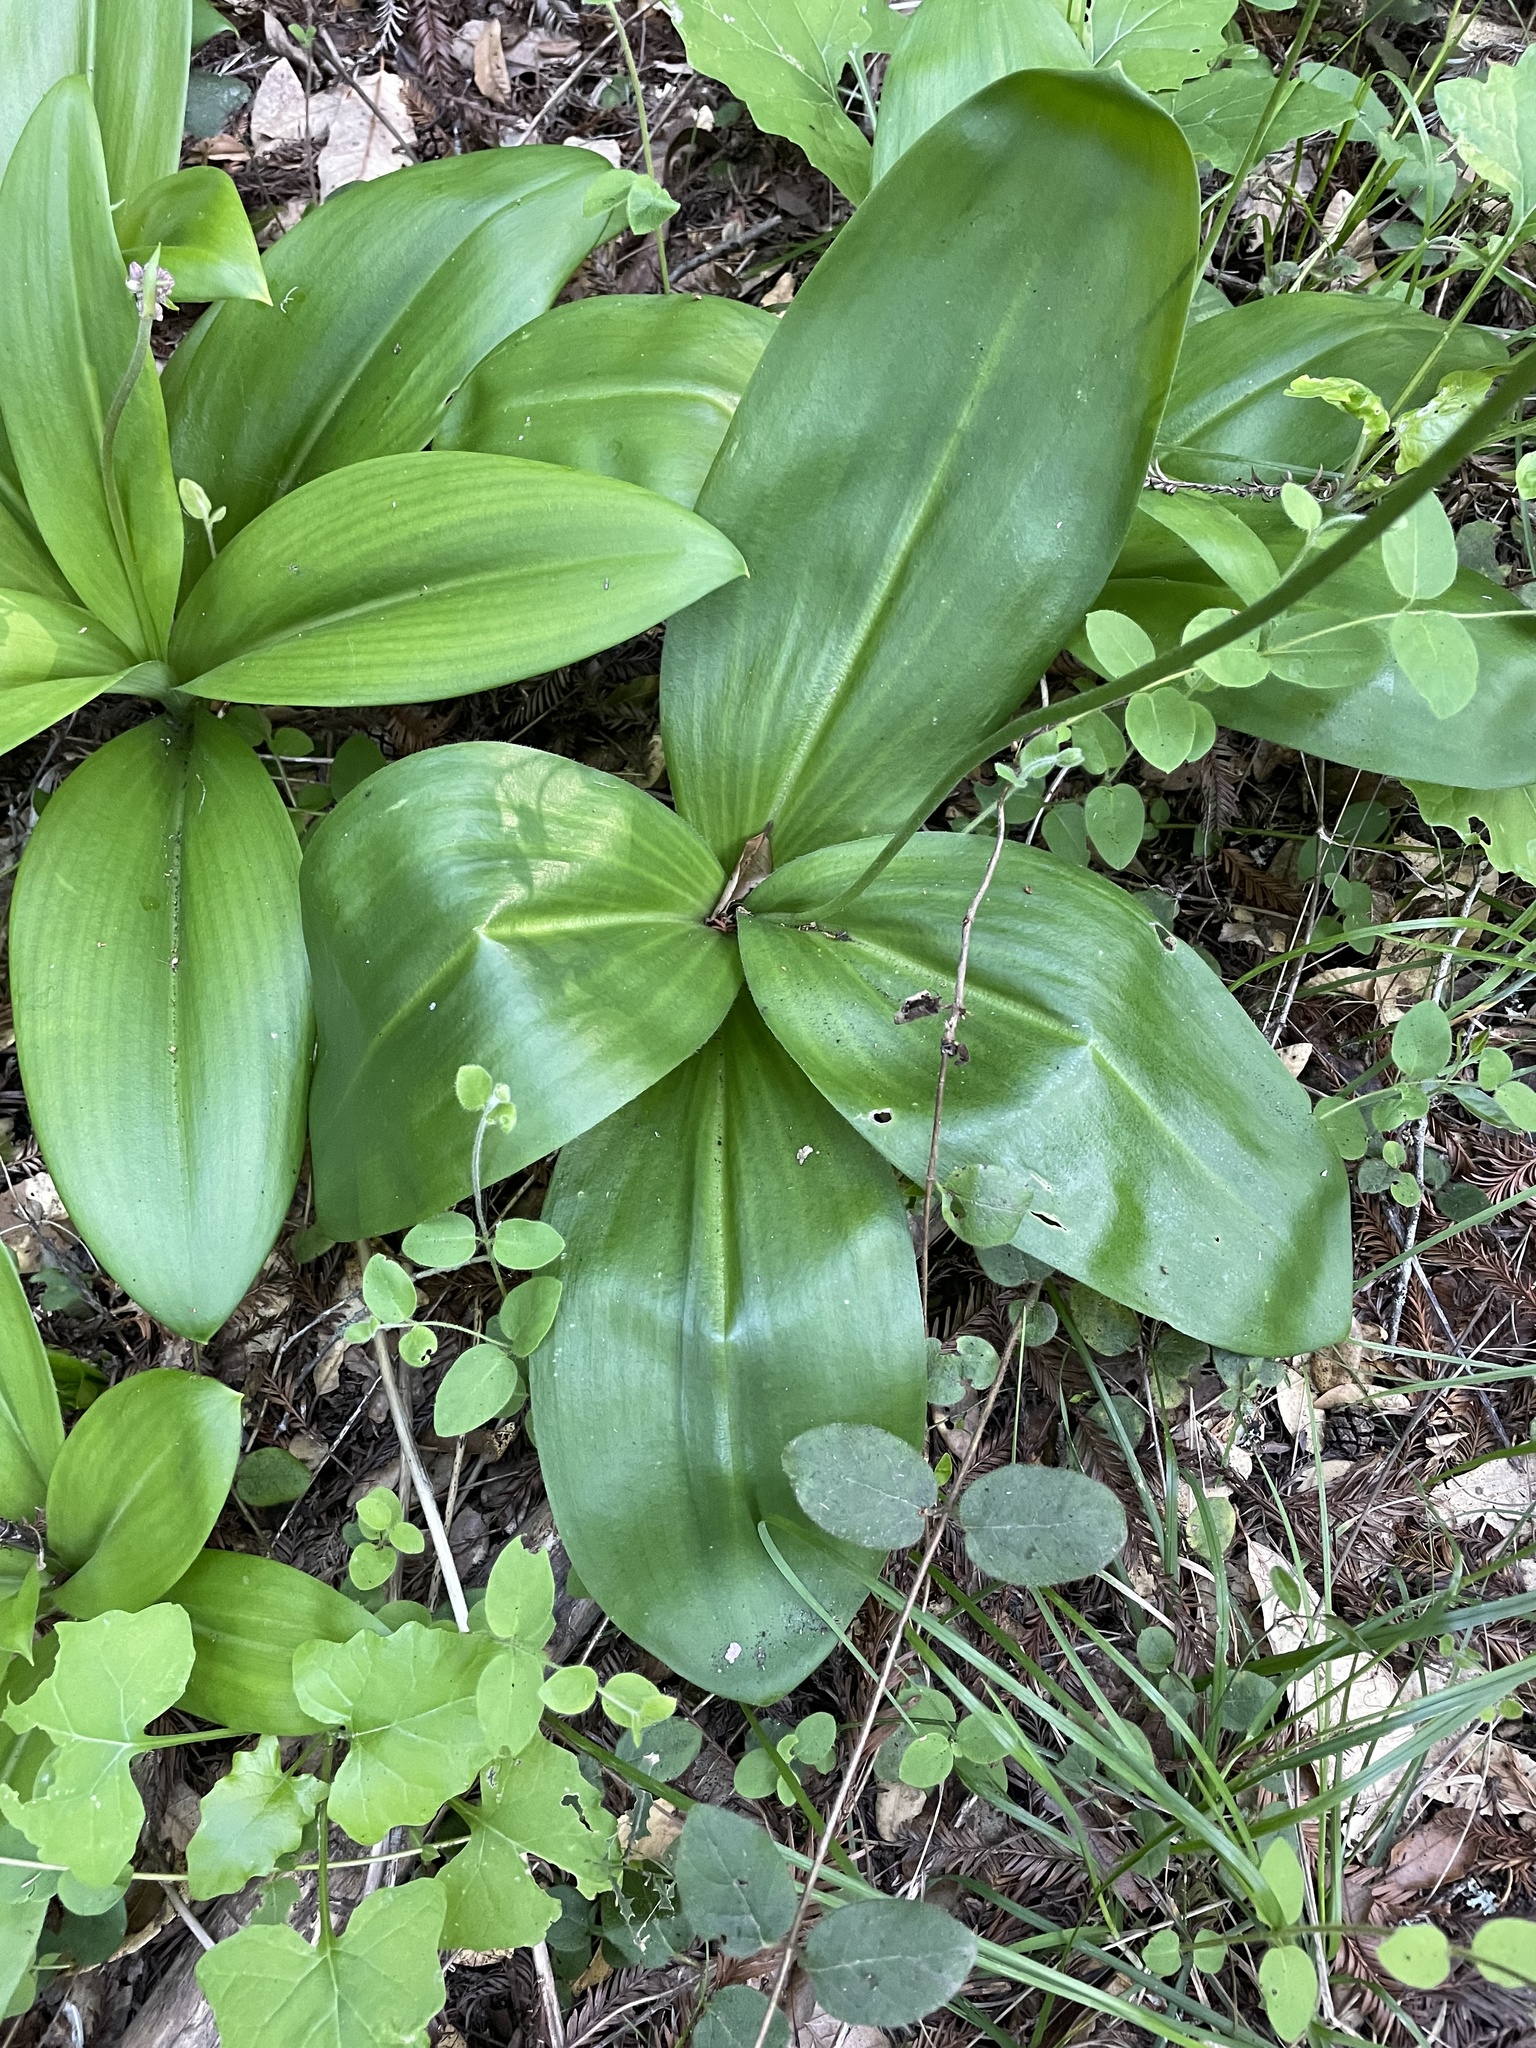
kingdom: Plantae
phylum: Tracheophyta
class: Liliopsida
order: Liliales
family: Liliaceae
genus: Clintonia
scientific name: Clintonia andrewsiana
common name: Red clintonia
